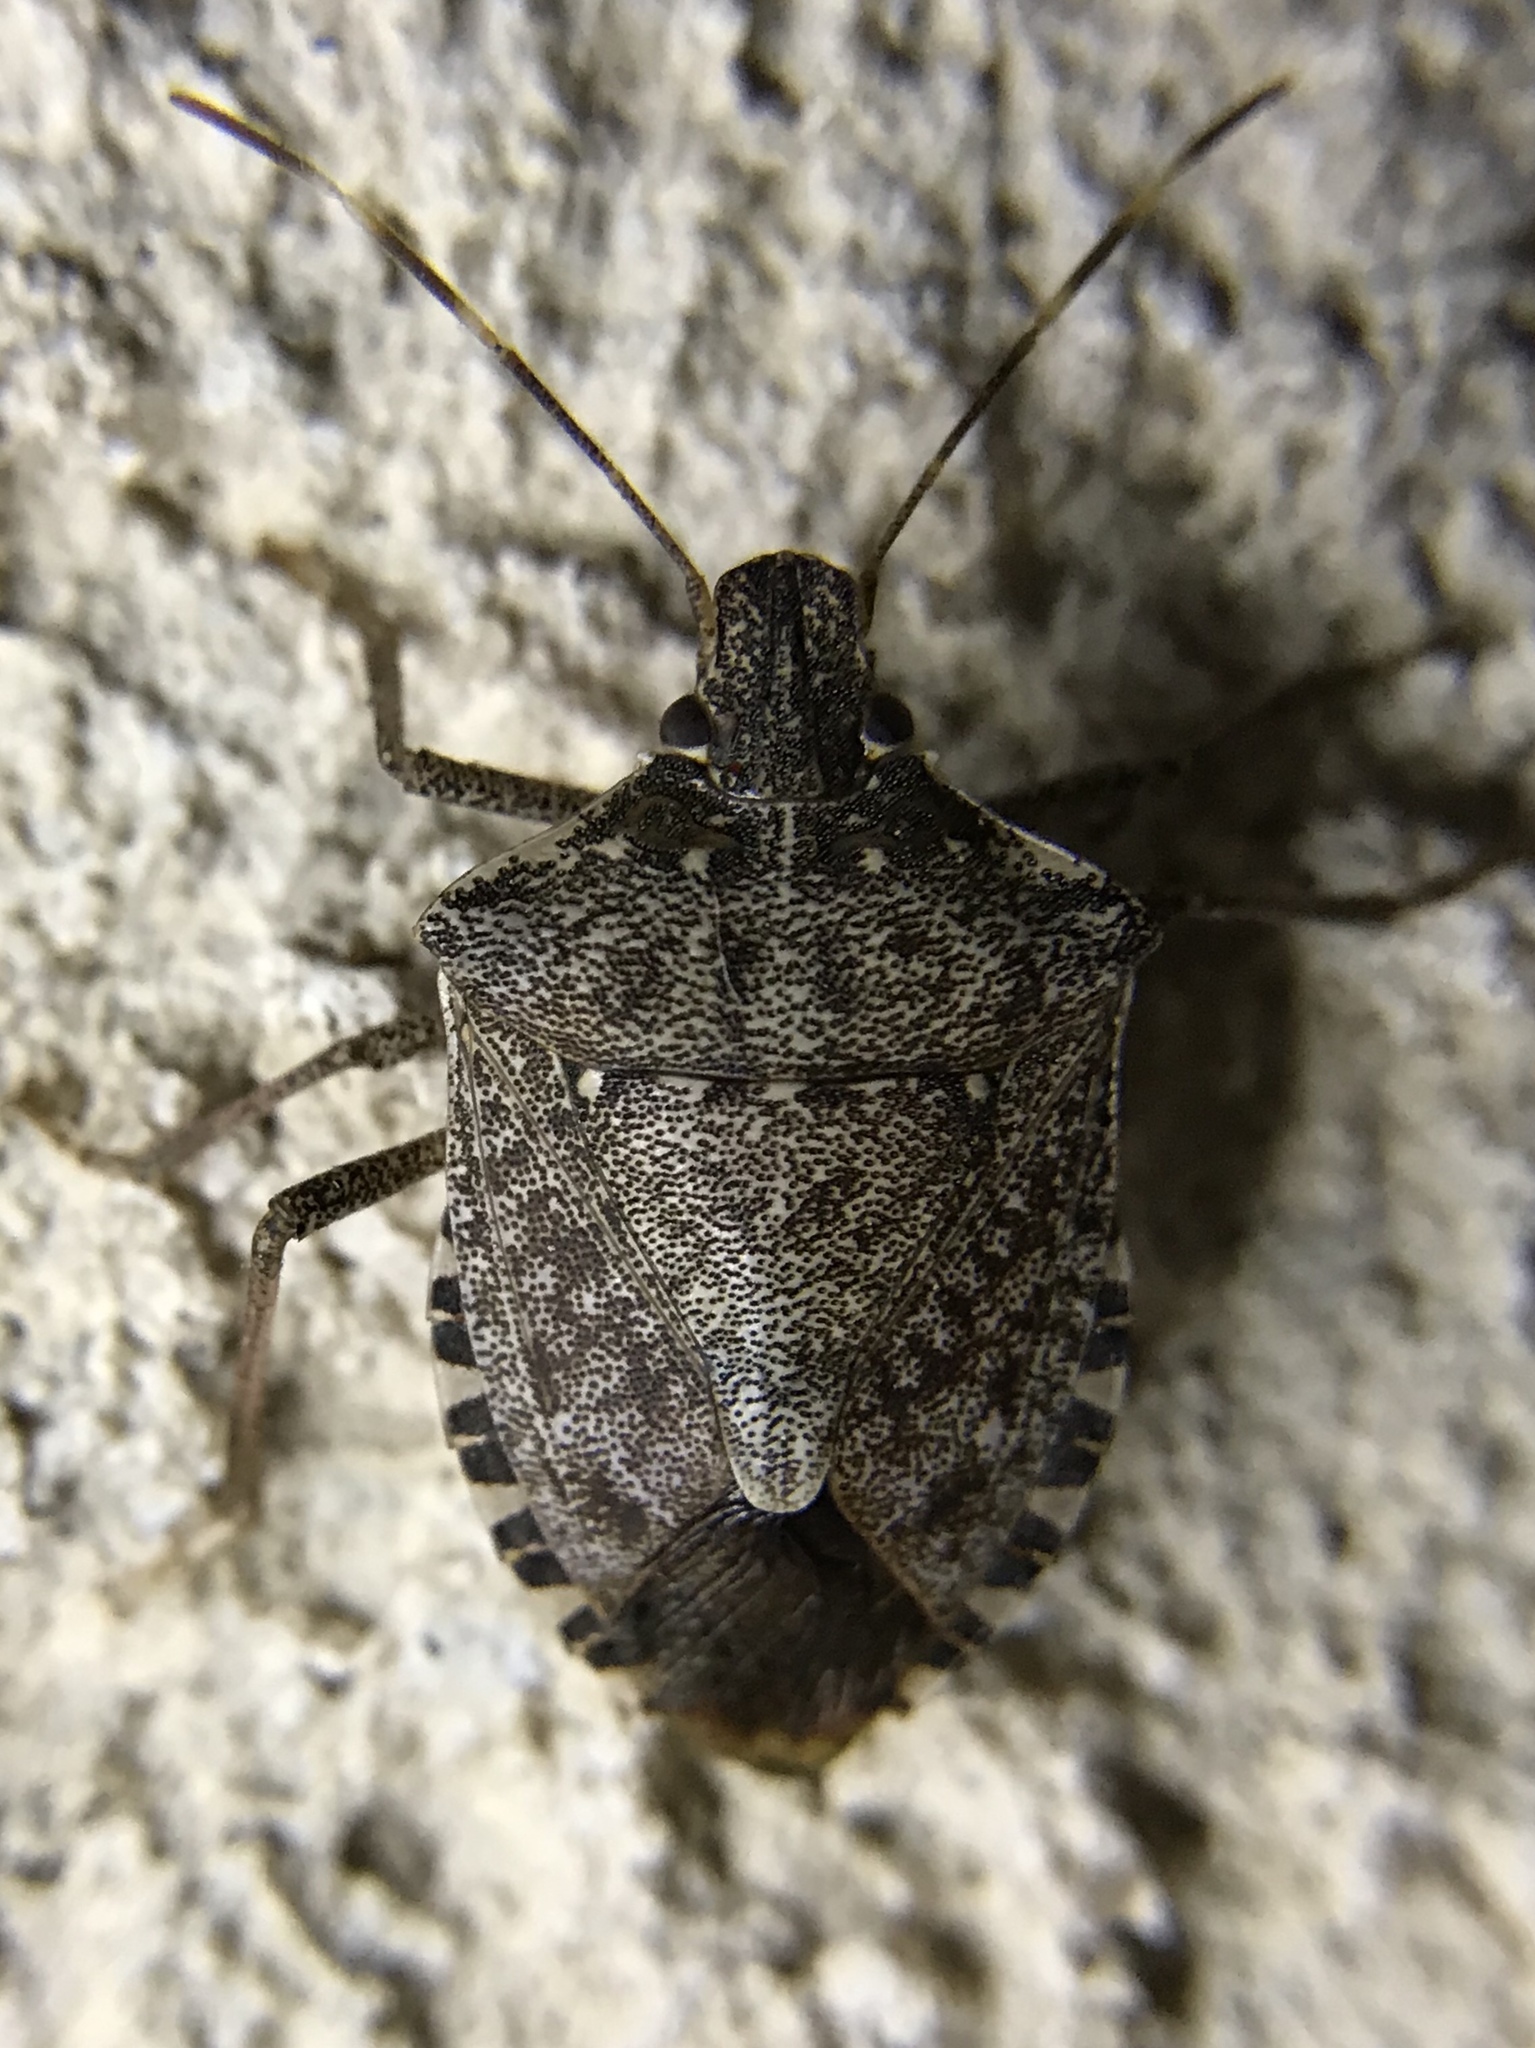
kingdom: Animalia
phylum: Arthropoda
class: Insecta
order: Hemiptera
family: Pentatomidae
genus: Halyomorpha
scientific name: Halyomorpha halys
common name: Brown marmorated stink bug
